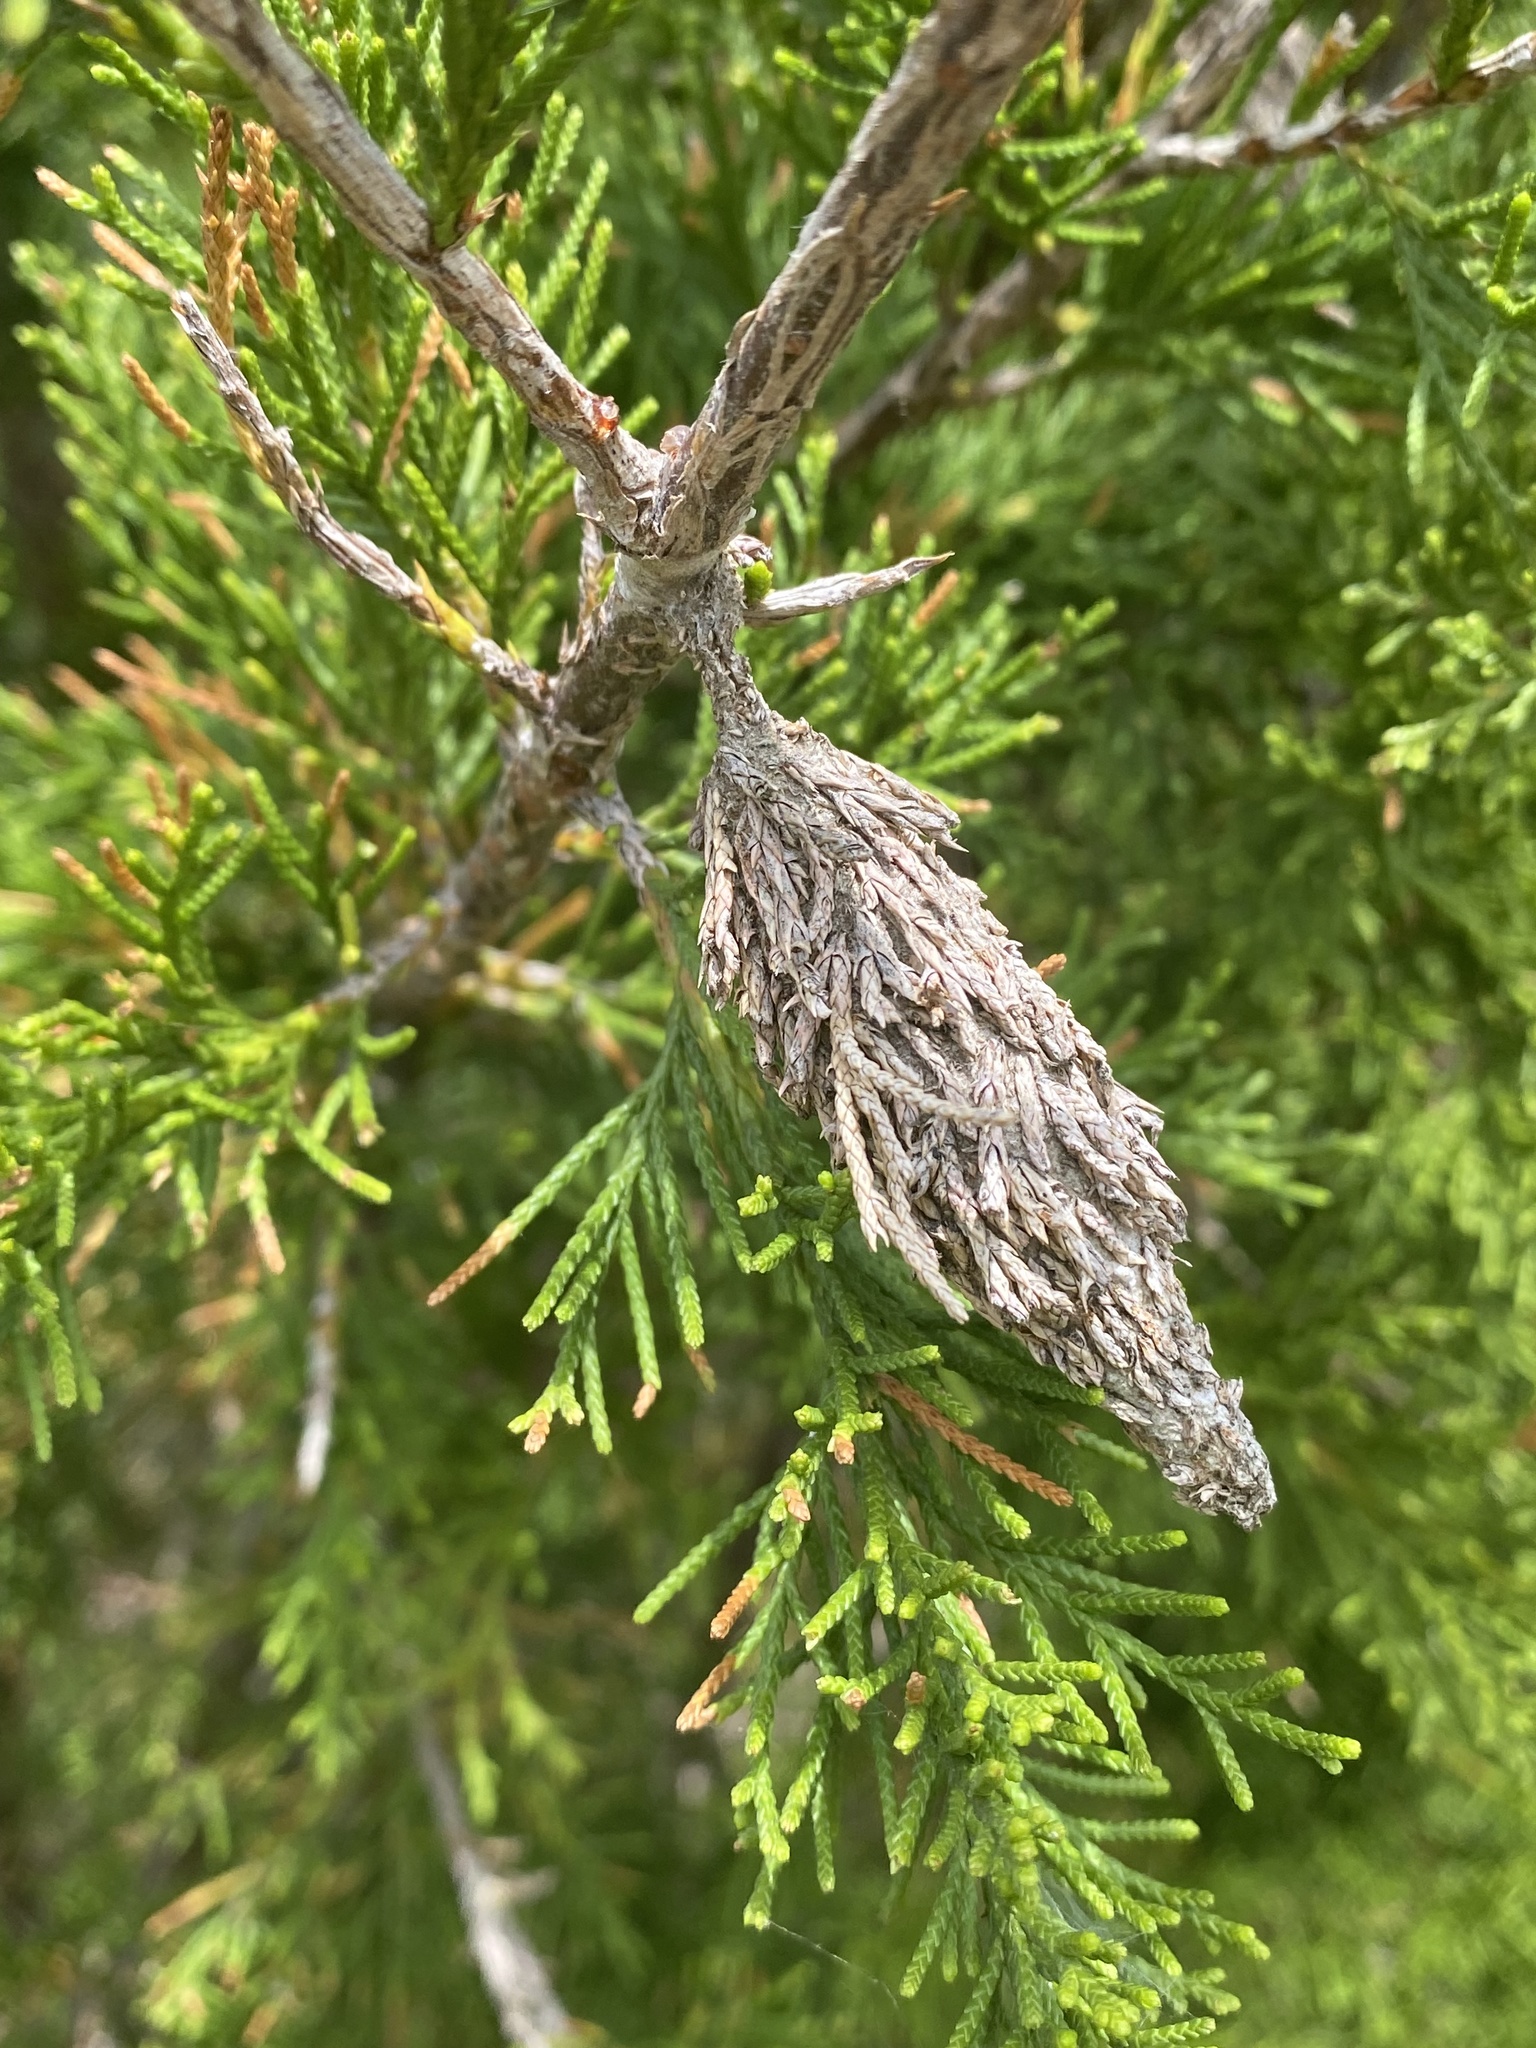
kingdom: Animalia
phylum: Arthropoda
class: Insecta
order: Lepidoptera
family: Psychidae
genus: Thyridopteryx
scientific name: Thyridopteryx ephemeraeformis
